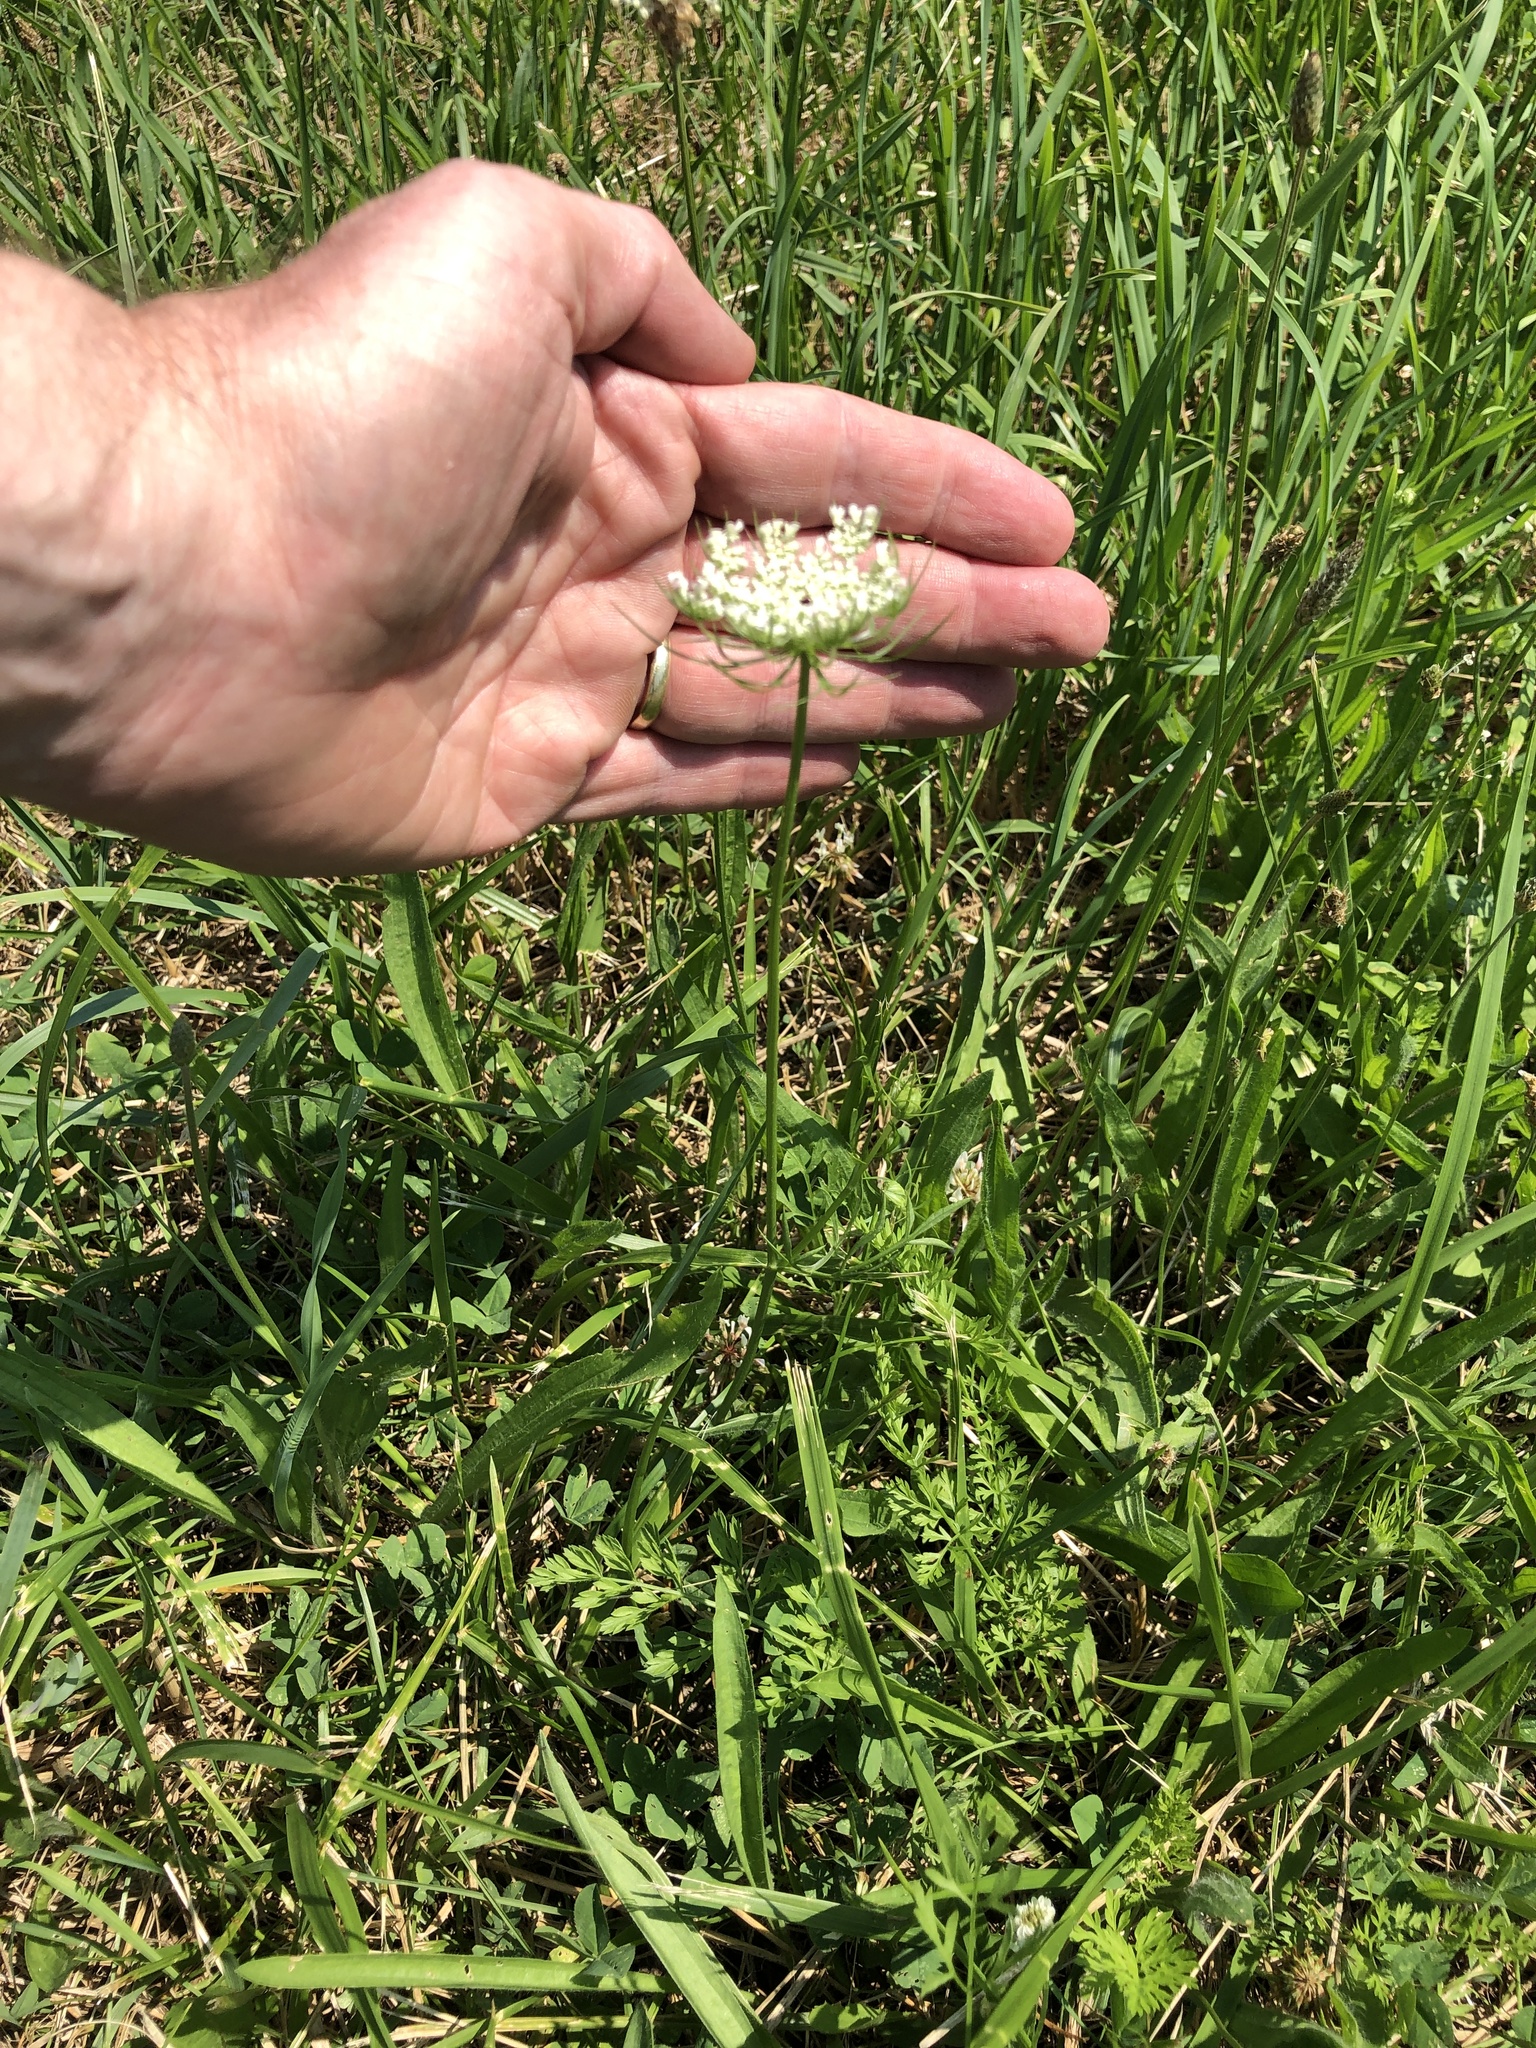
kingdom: Plantae
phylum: Tracheophyta
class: Magnoliopsida
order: Apiales
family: Apiaceae
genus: Daucus
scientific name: Daucus carota
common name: Wild carrot
